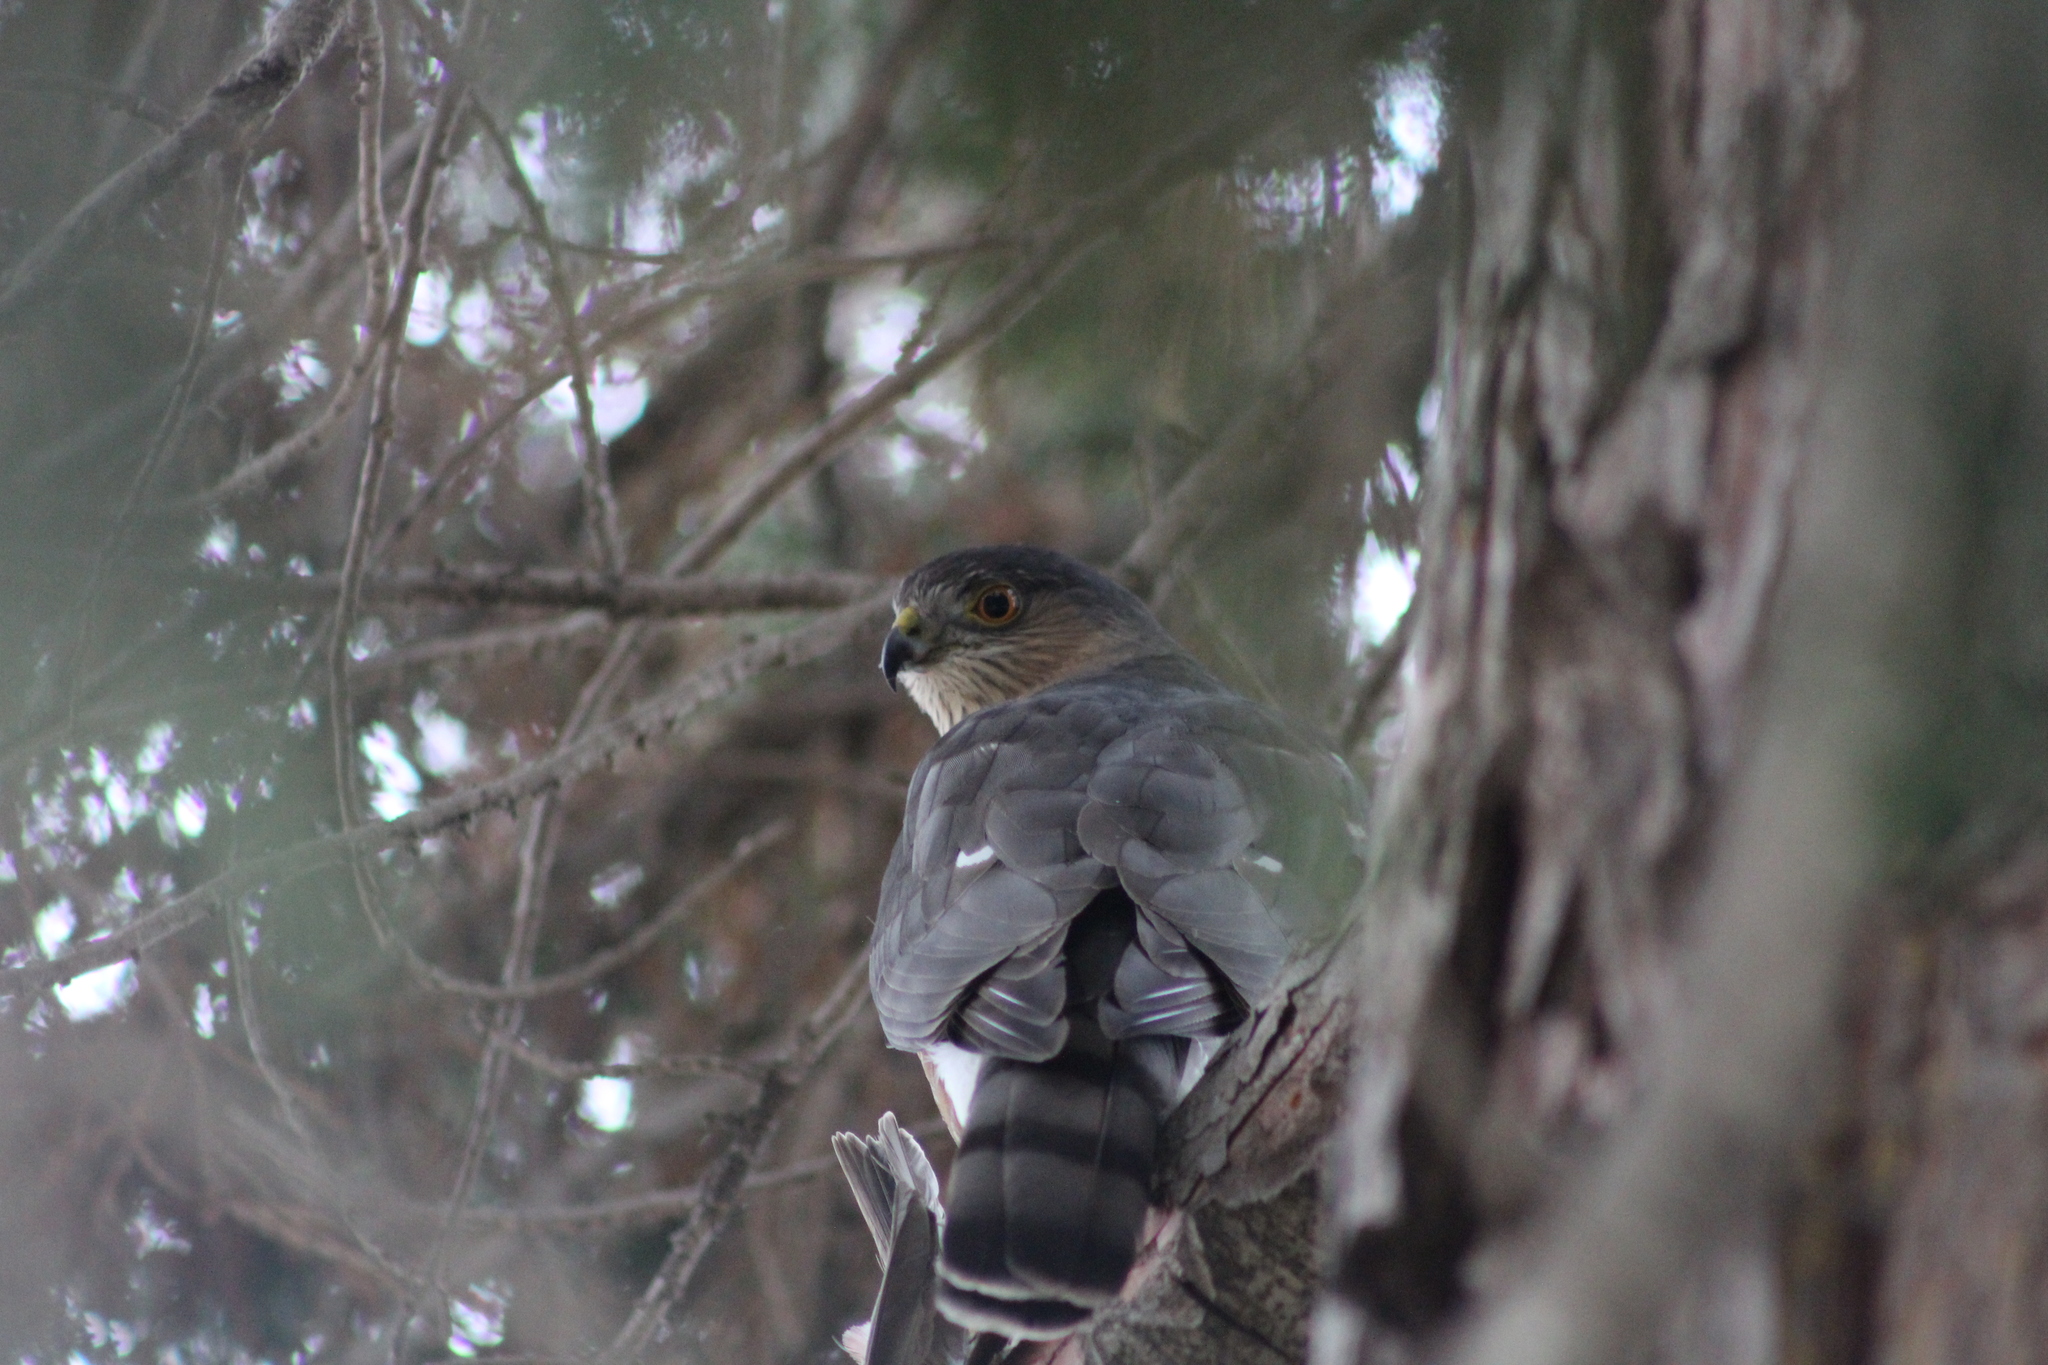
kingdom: Animalia
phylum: Chordata
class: Aves
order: Accipitriformes
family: Accipitridae
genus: Accipiter
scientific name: Accipiter striatus
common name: Sharp-shinned hawk
